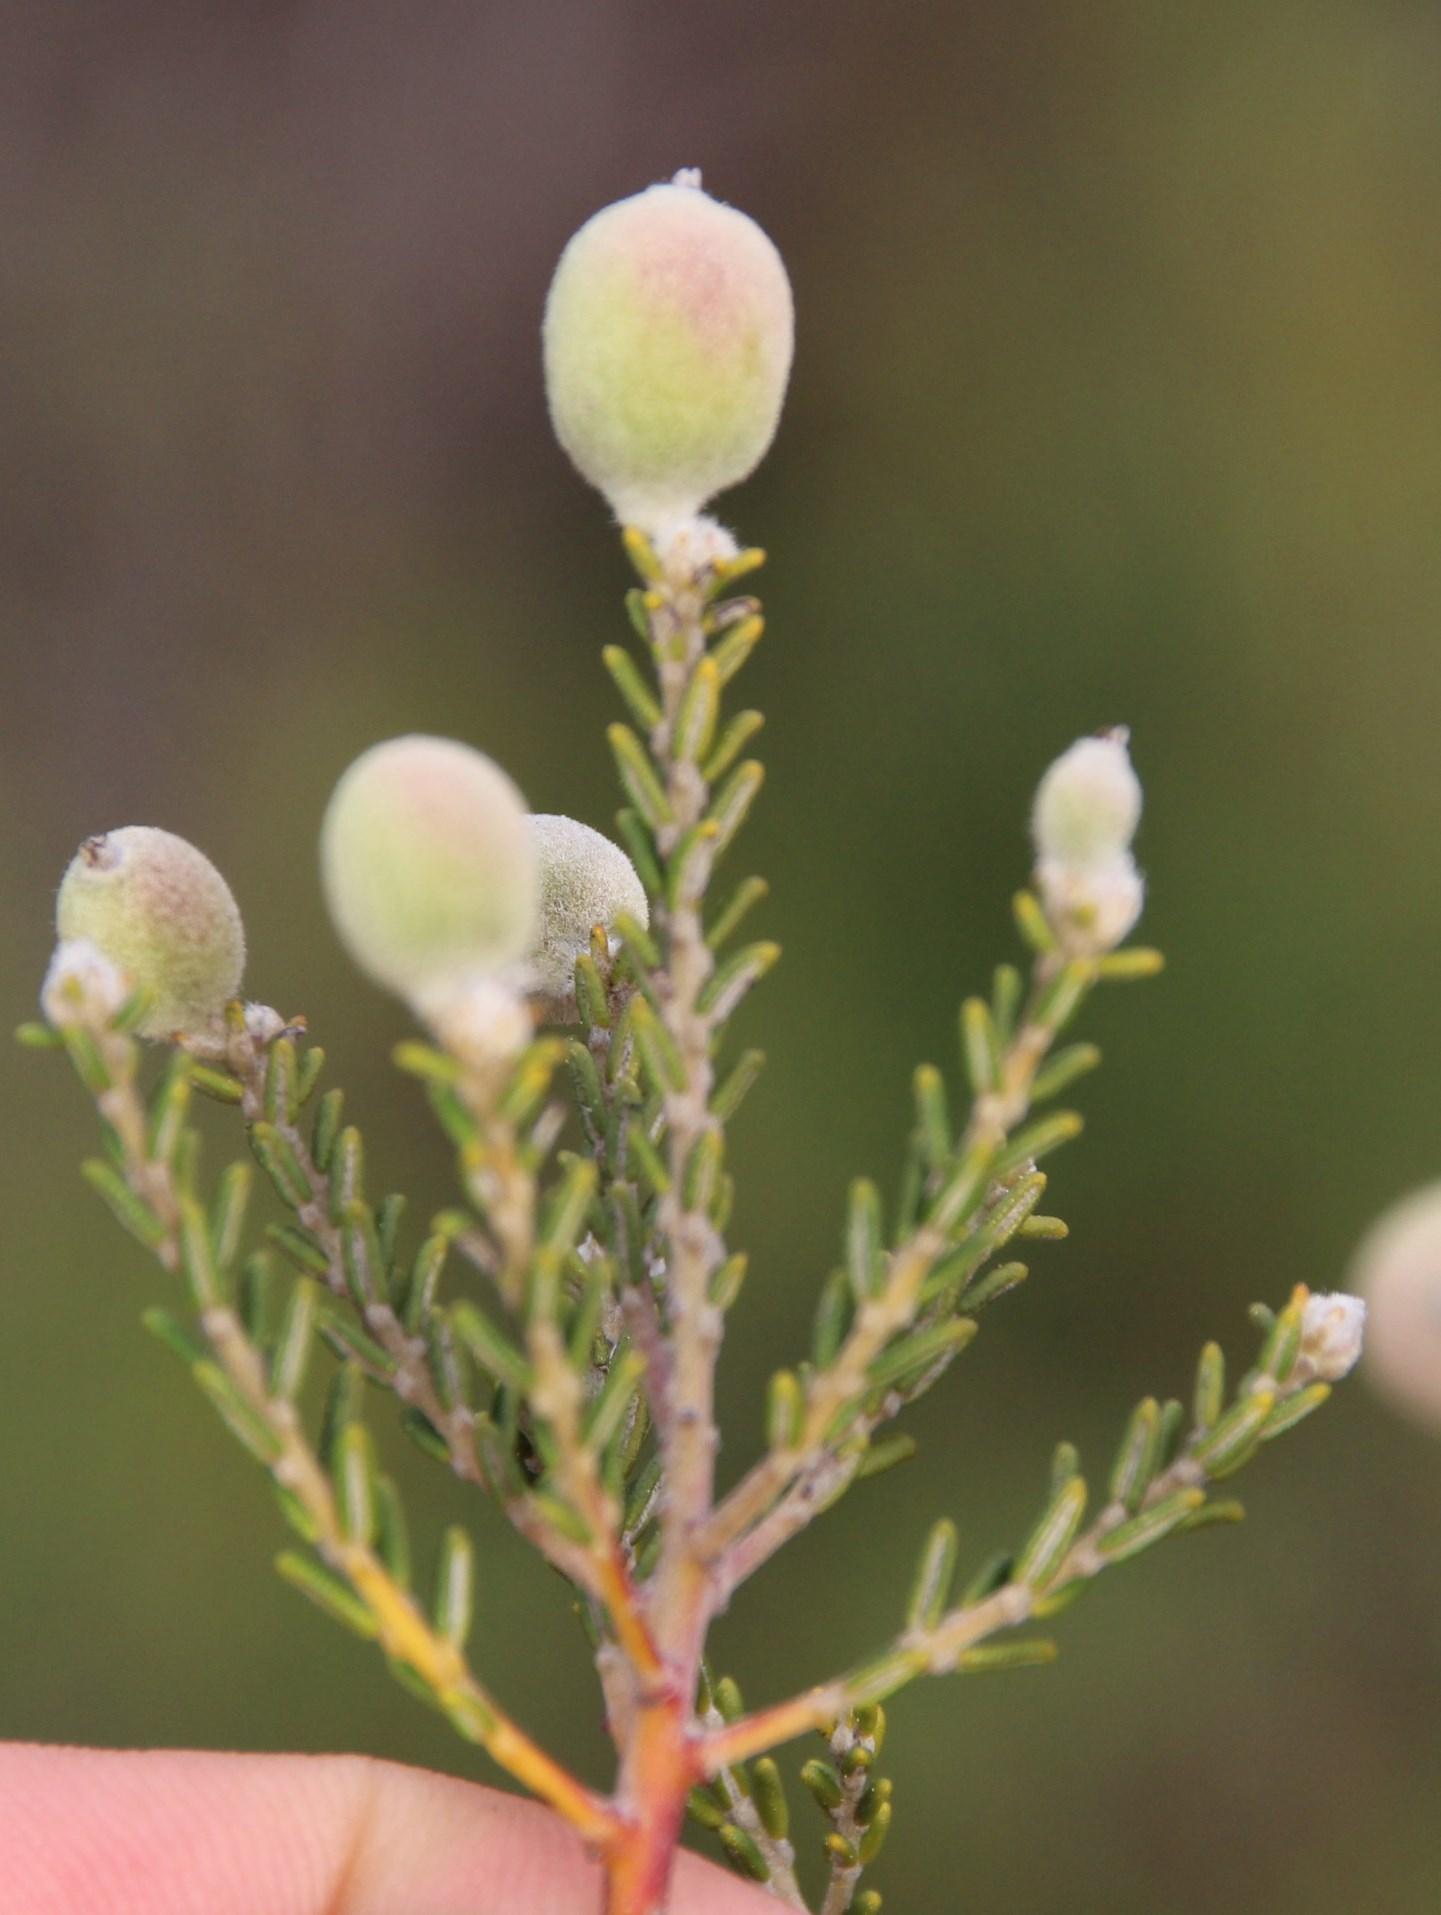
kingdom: Plantae
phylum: Tracheophyta
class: Magnoliopsida
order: Rosales
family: Rhamnaceae
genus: Phylica
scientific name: Phylica cephalantha
